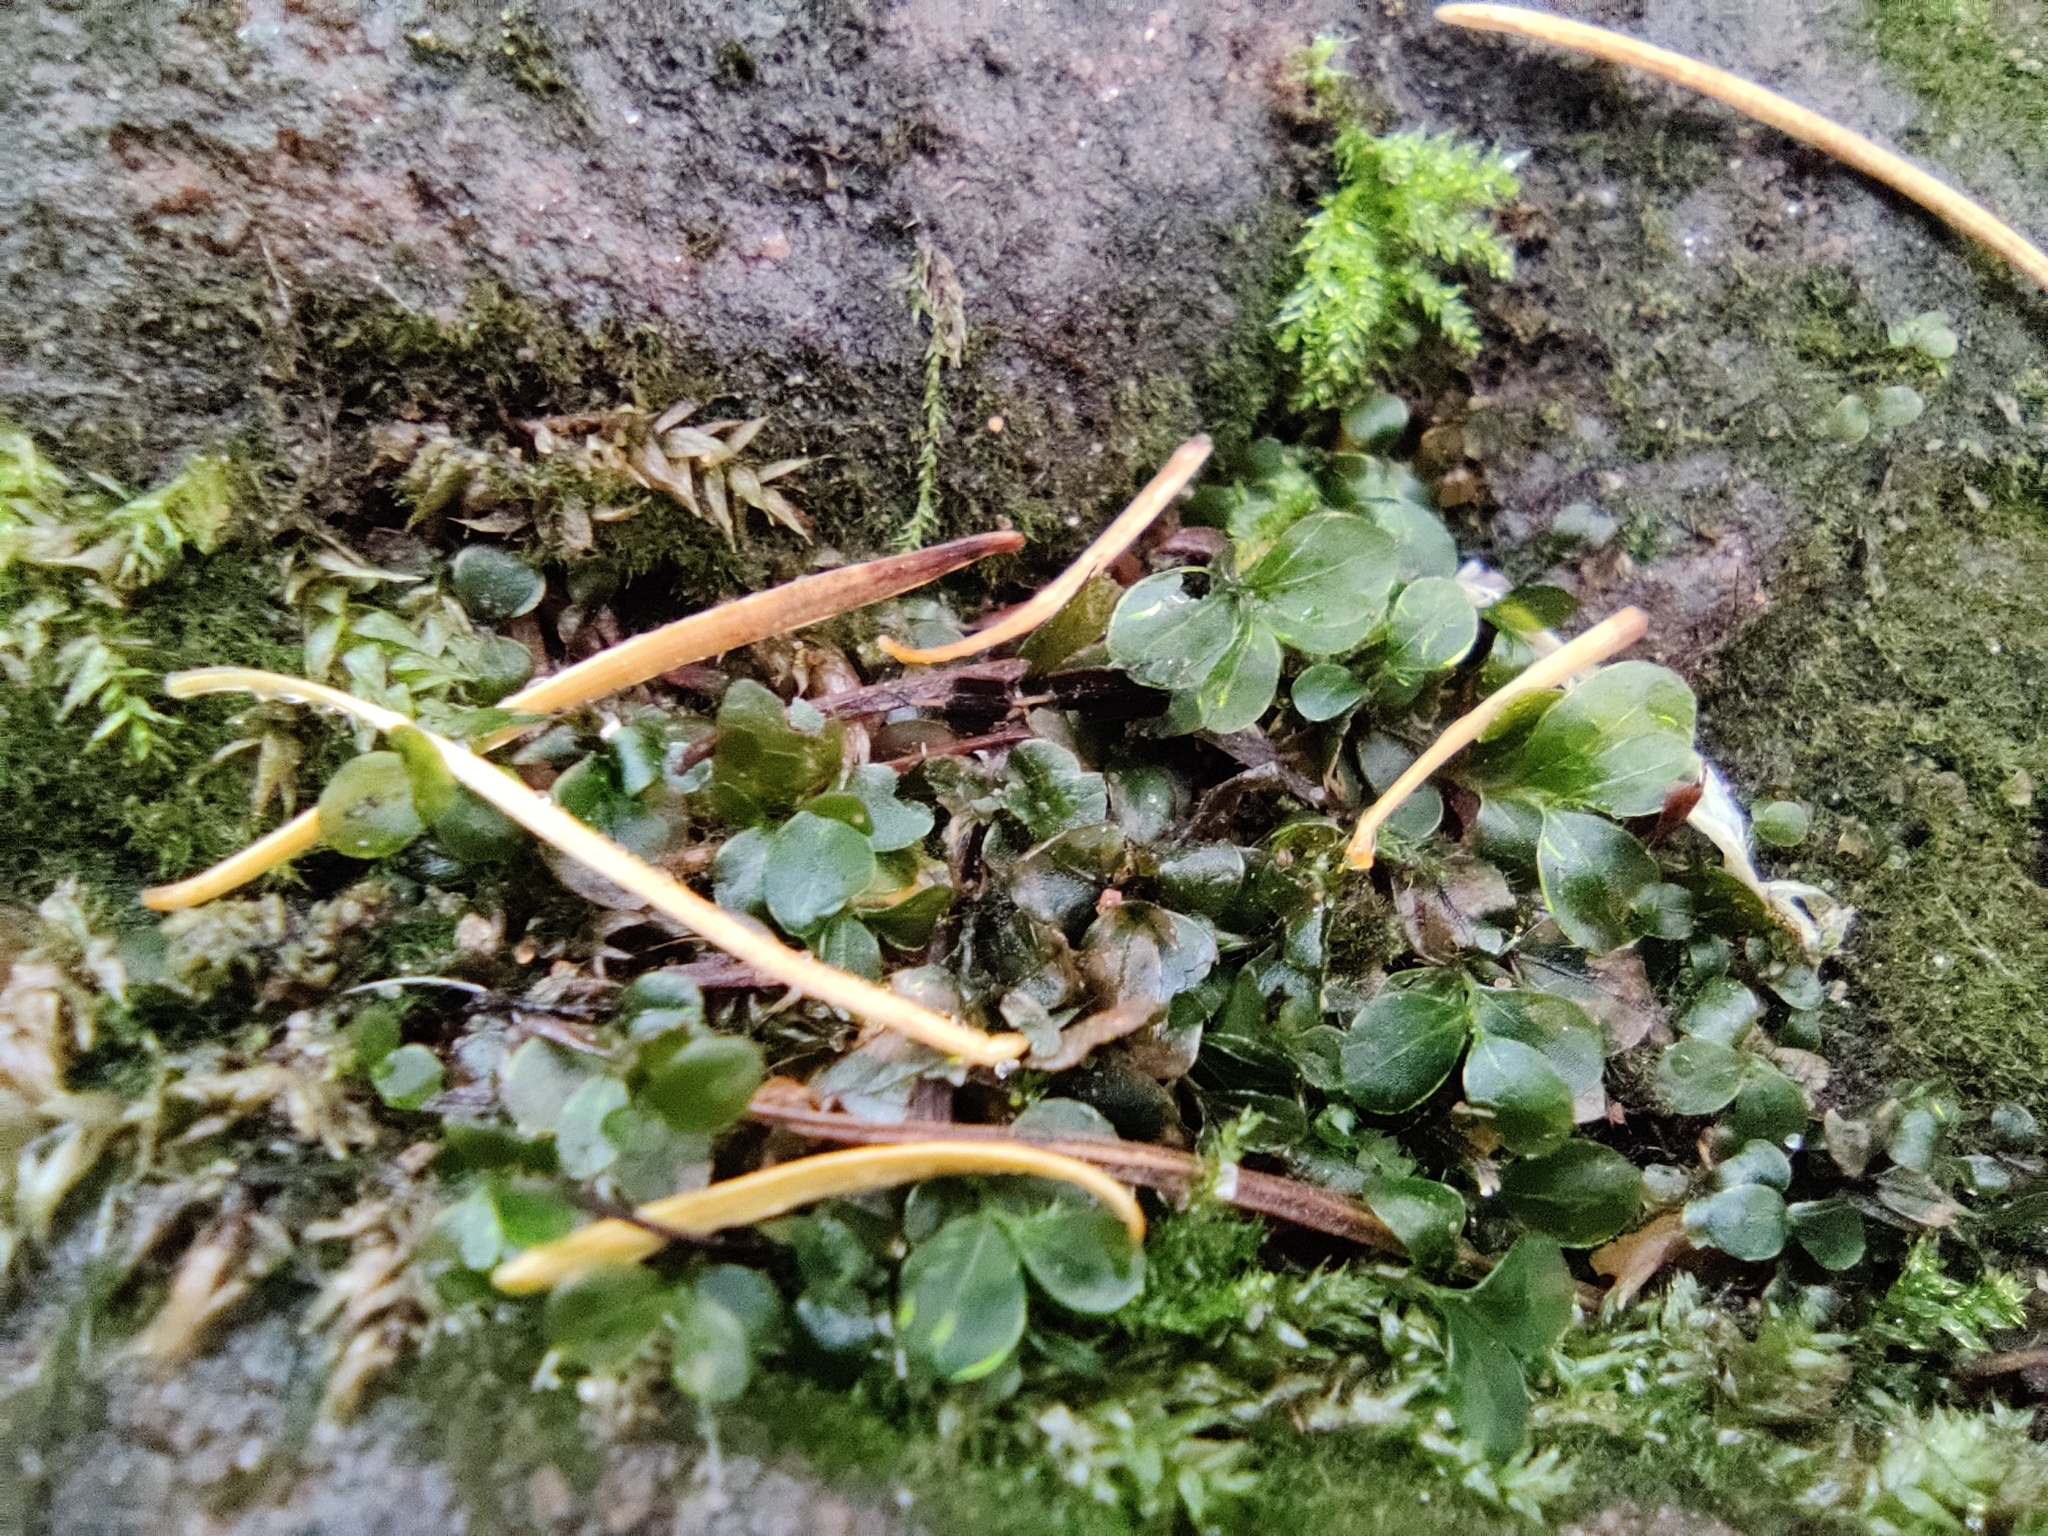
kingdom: Plantae
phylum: Bryophyta
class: Bryopsida
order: Bryales
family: Mniaceae
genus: Rhizomnium
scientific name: Rhizomnium punctatum
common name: Dotted leafy moss
